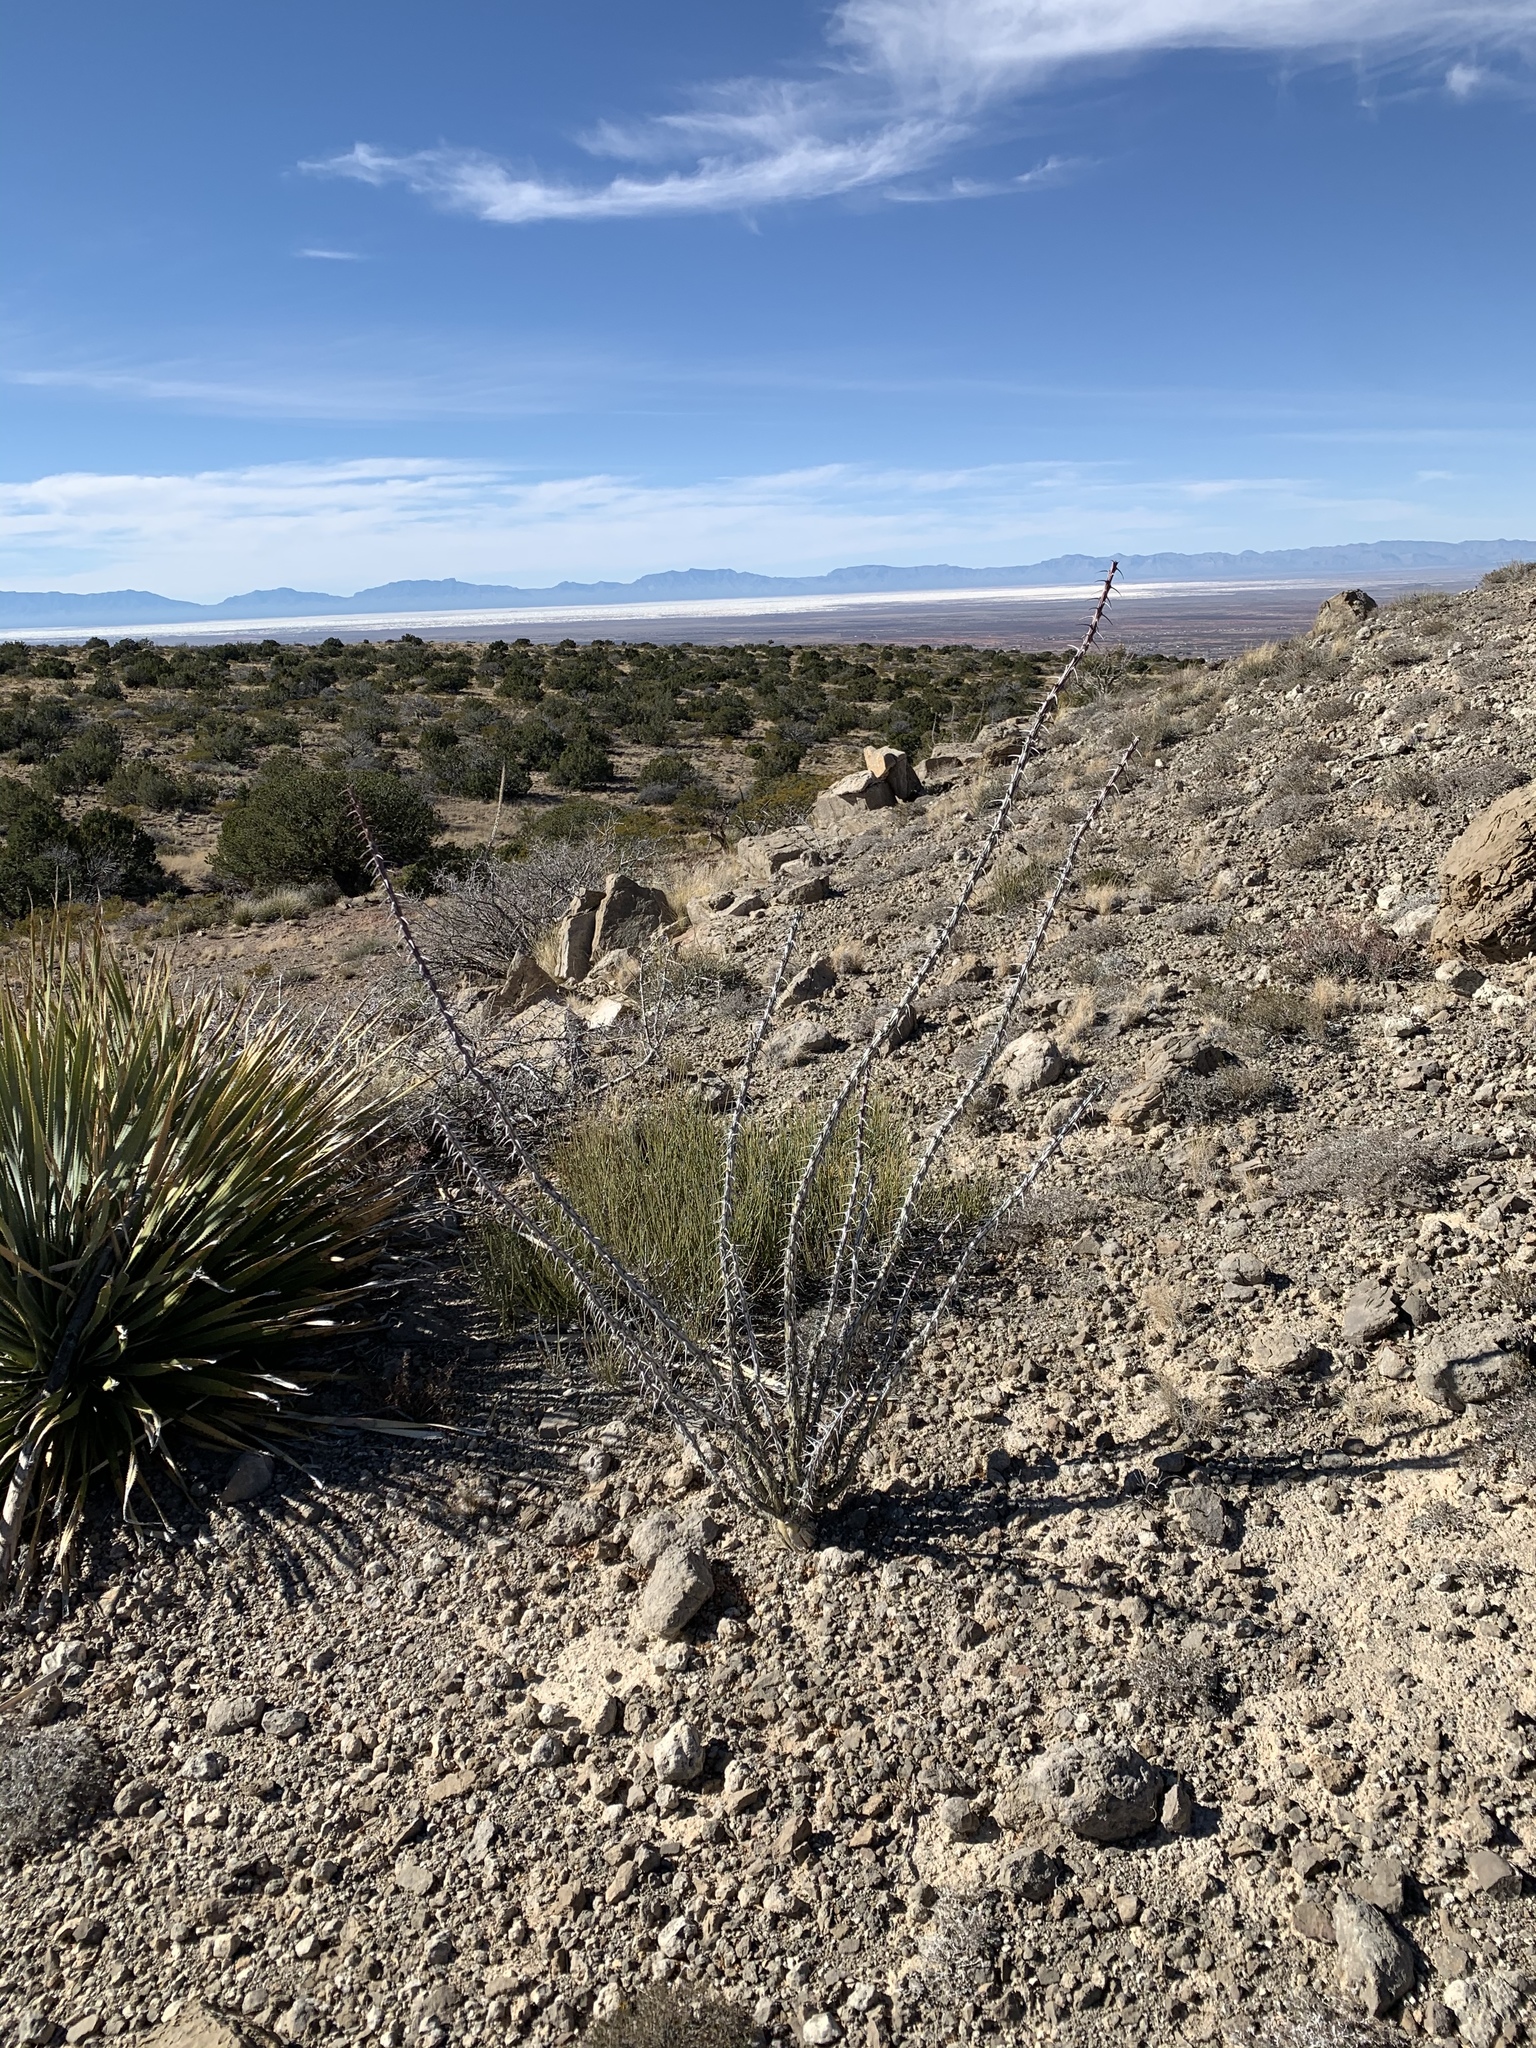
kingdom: Plantae
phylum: Tracheophyta
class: Magnoliopsida
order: Ericales
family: Fouquieriaceae
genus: Fouquieria
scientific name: Fouquieria splendens
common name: Vine-cactus
